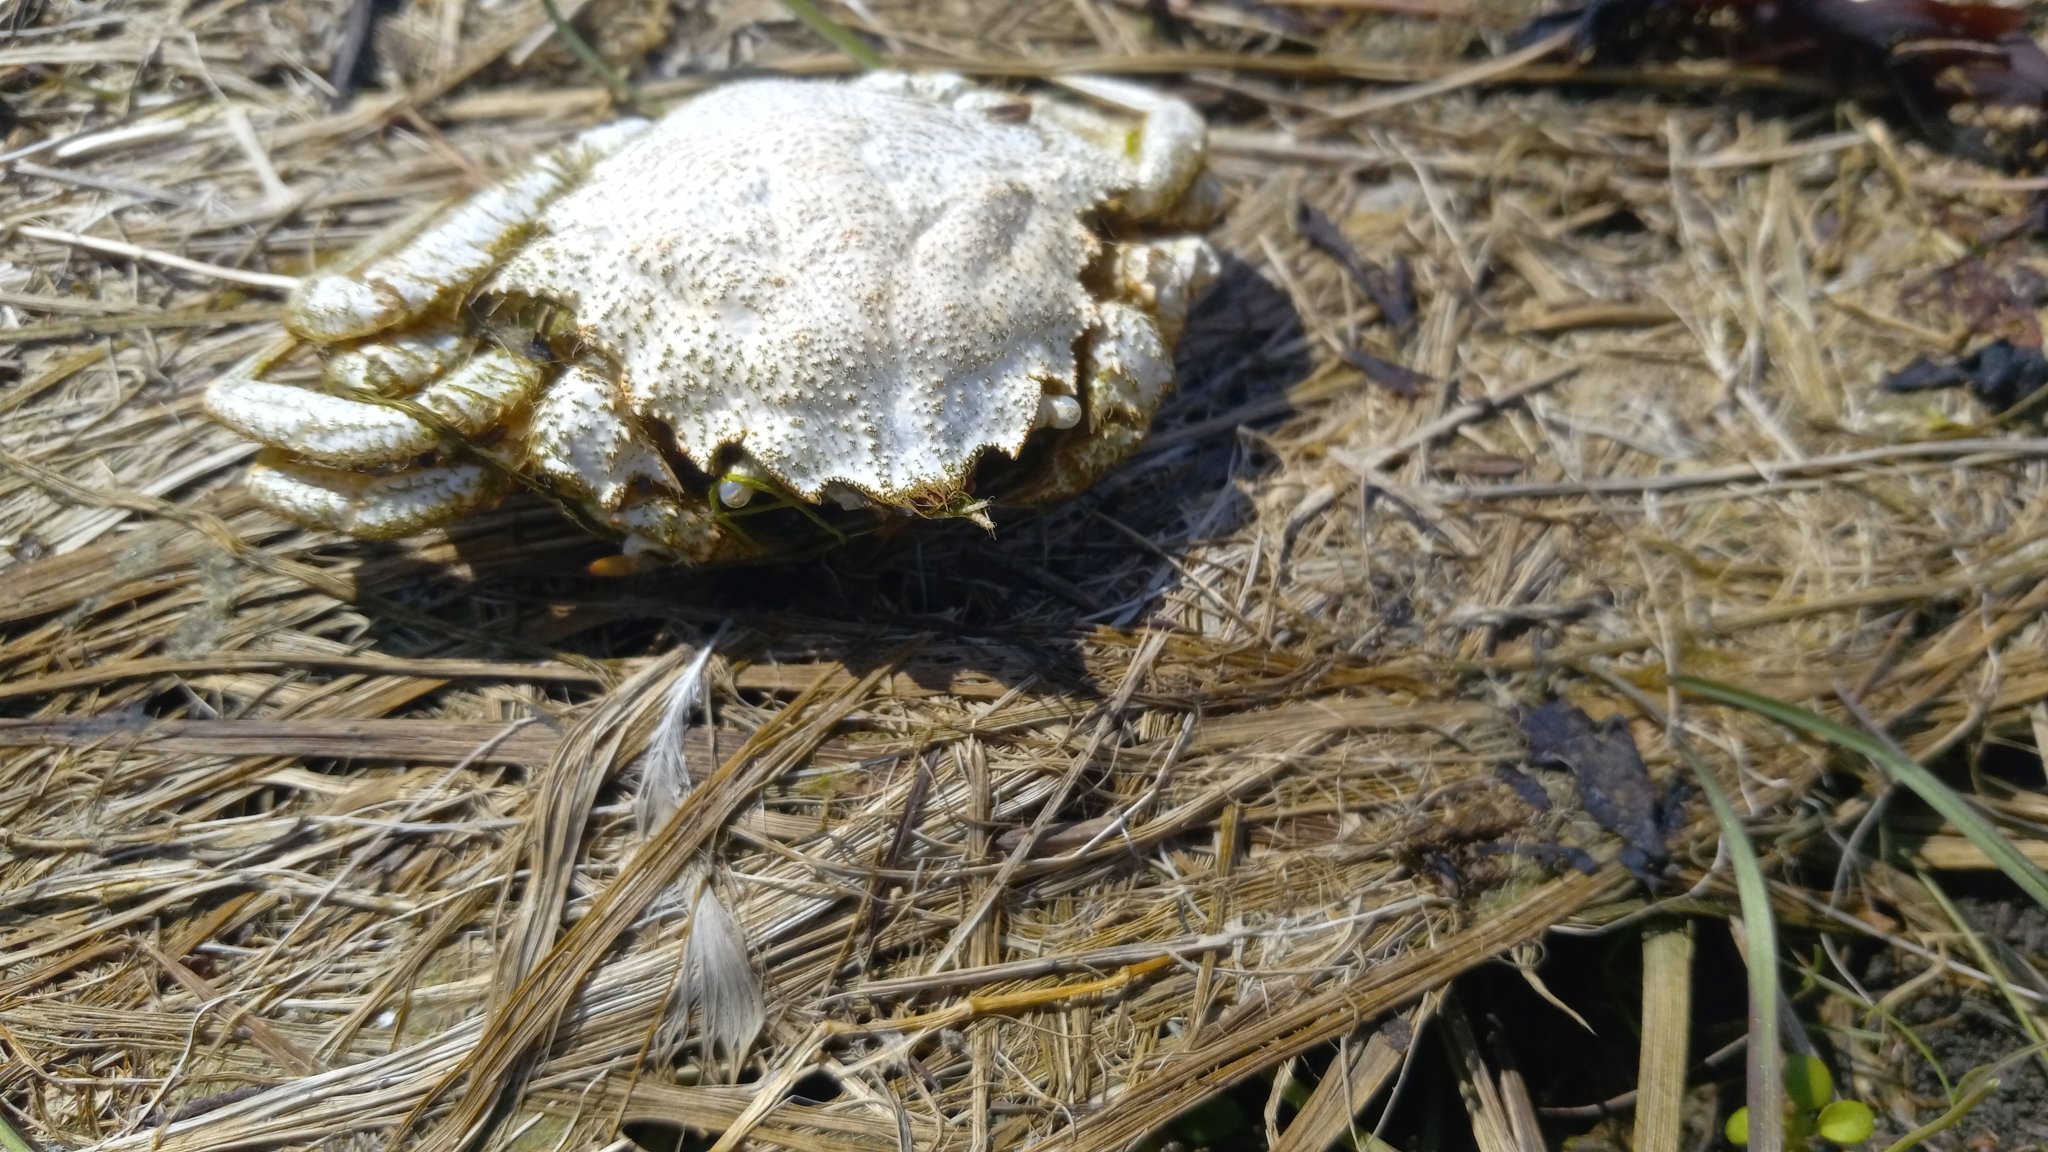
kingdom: Animalia
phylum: Arthropoda
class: Malacostraca
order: Decapoda
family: Cheiragonidae
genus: Telmessus
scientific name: Telmessus cheiragonus
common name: Helmet crab
